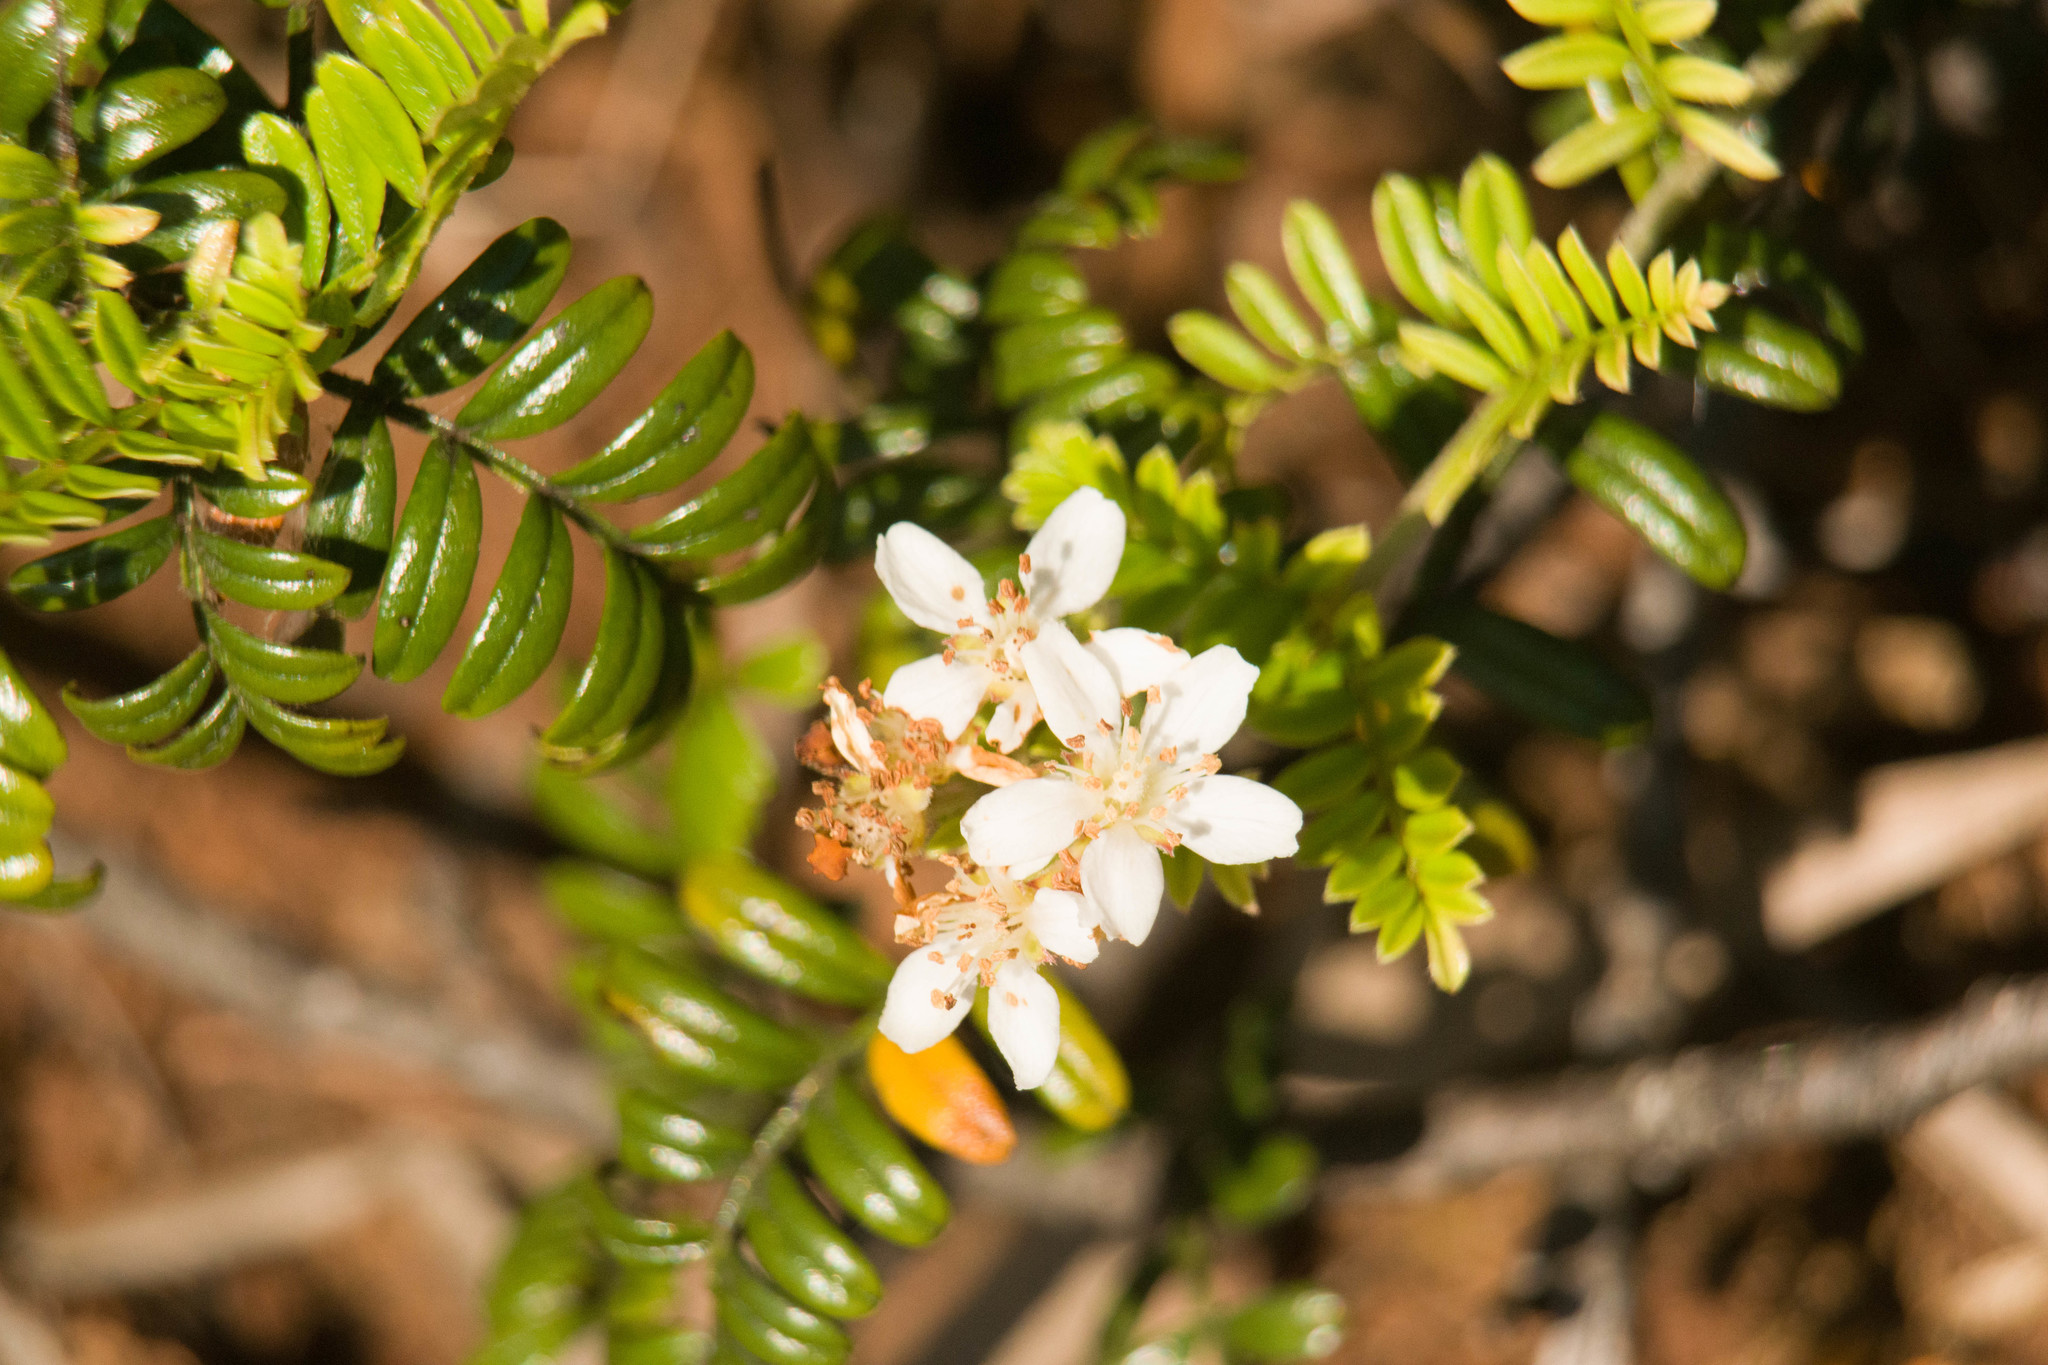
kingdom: Plantae
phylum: Tracheophyta
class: Magnoliopsida
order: Rosales
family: Rosaceae
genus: Osteomeles
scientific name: Osteomeles anthyllidifolia
